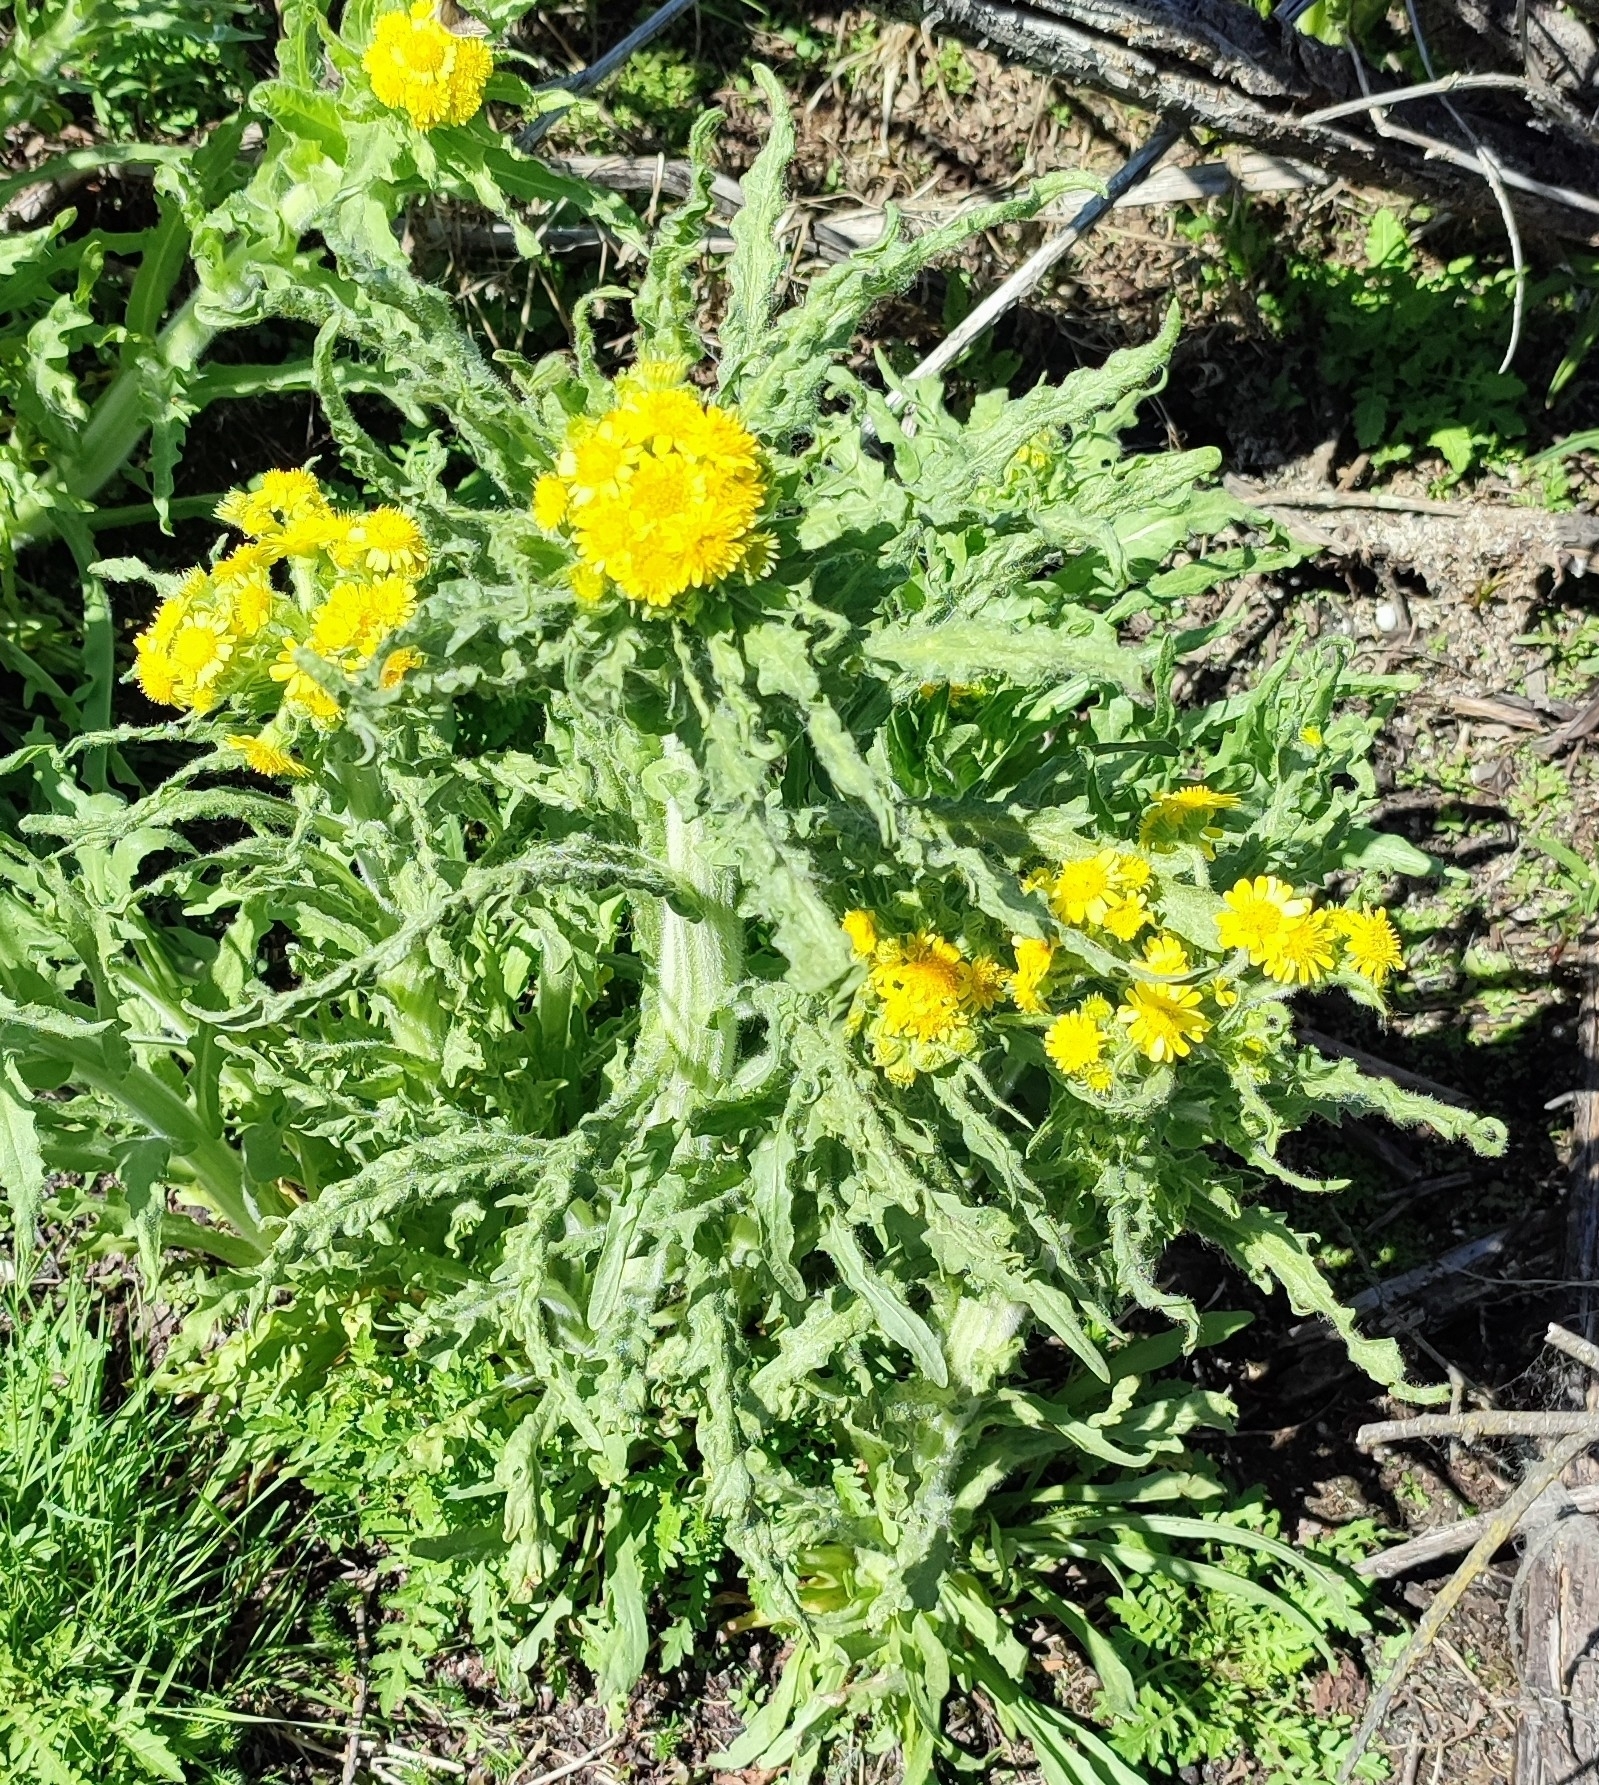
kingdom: Plantae
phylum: Tracheophyta
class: Magnoliopsida
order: Asterales
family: Asteraceae
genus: Tephroseris
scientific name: Tephroseris palustris
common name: Marsh fleawort
